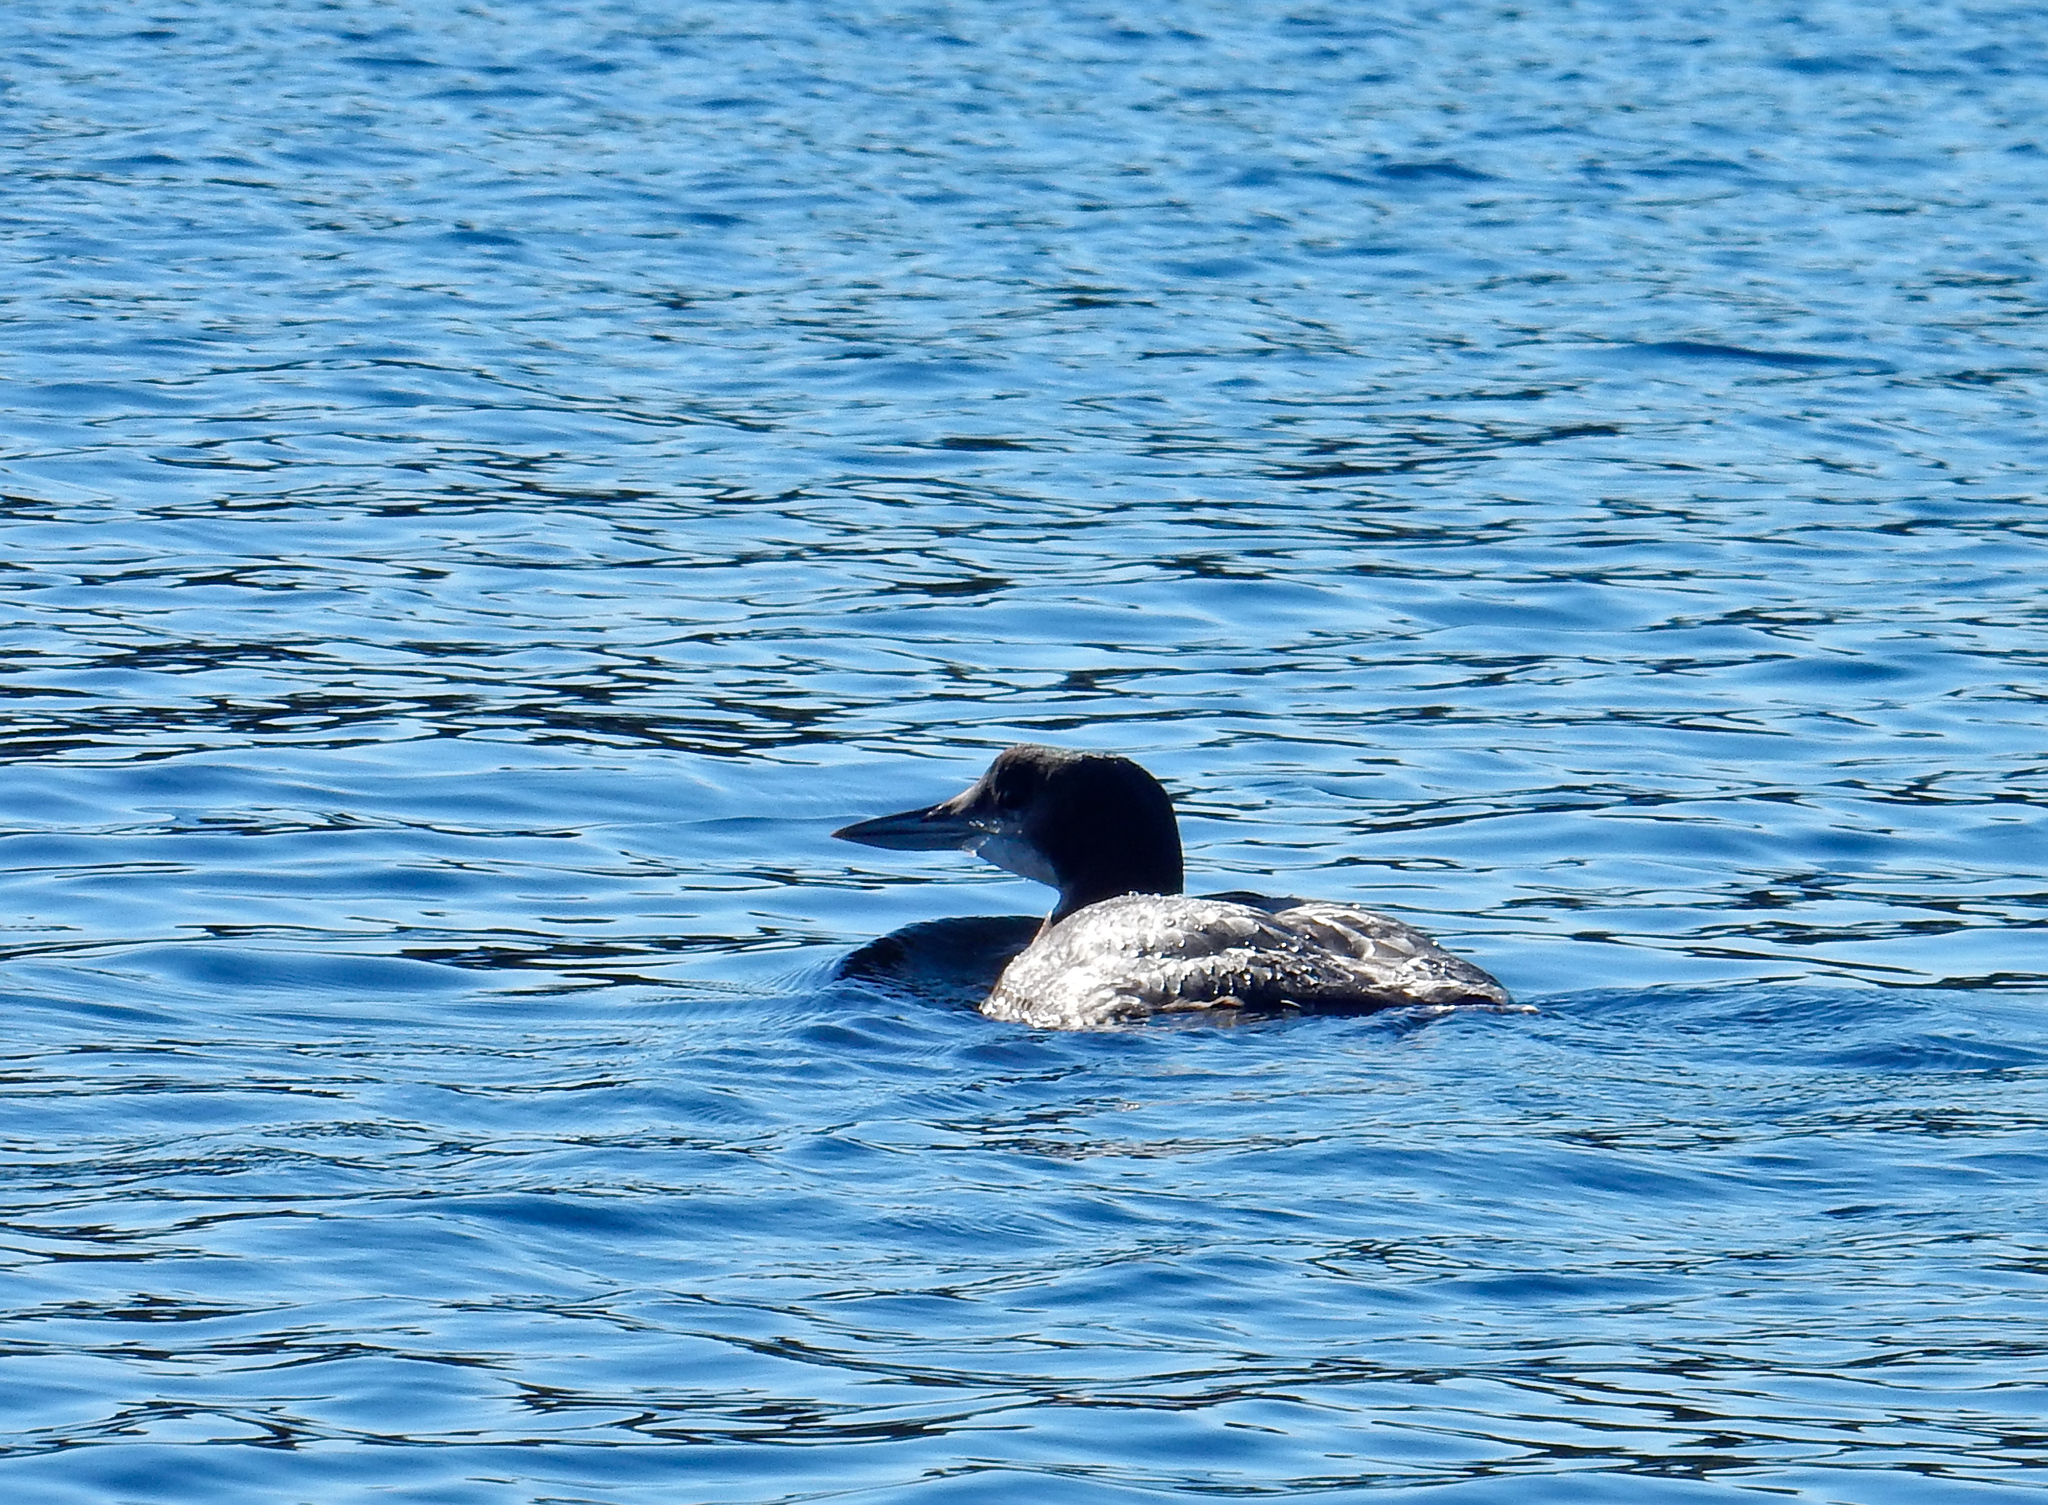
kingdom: Animalia
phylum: Chordata
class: Aves
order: Gaviiformes
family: Gaviidae
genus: Gavia
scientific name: Gavia immer
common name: Common loon
